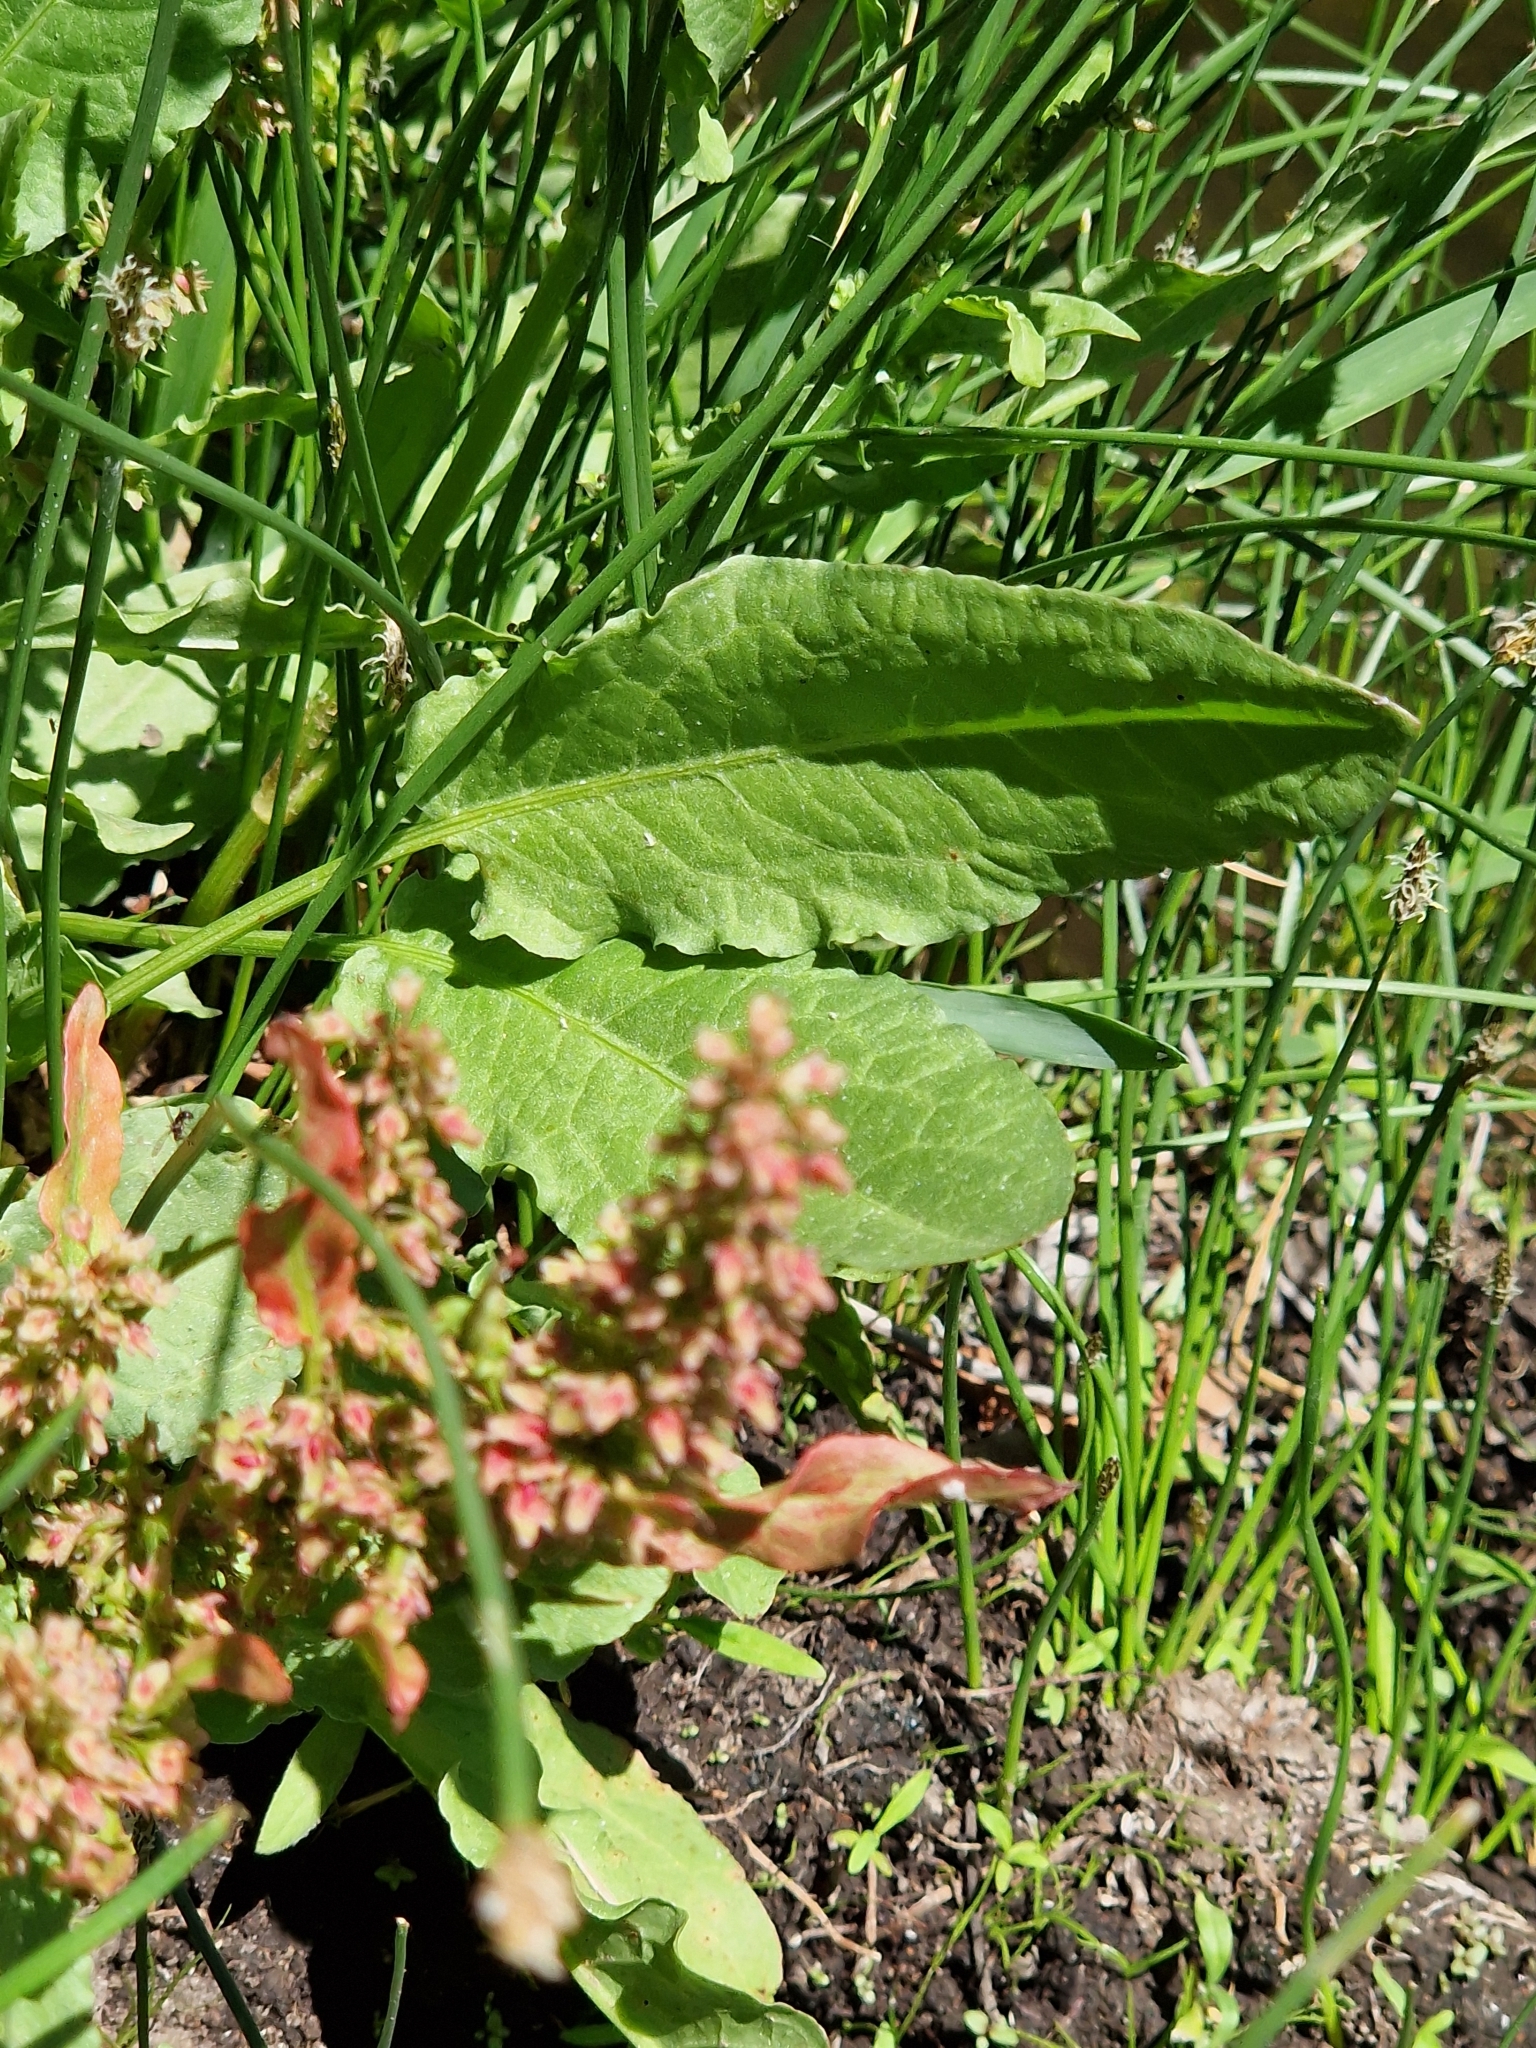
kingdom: Plantae
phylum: Tracheophyta
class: Magnoliopsida
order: Caryophyllales
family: Polygonaceae
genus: Rumex
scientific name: Rumex crispus
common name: Curled dock
